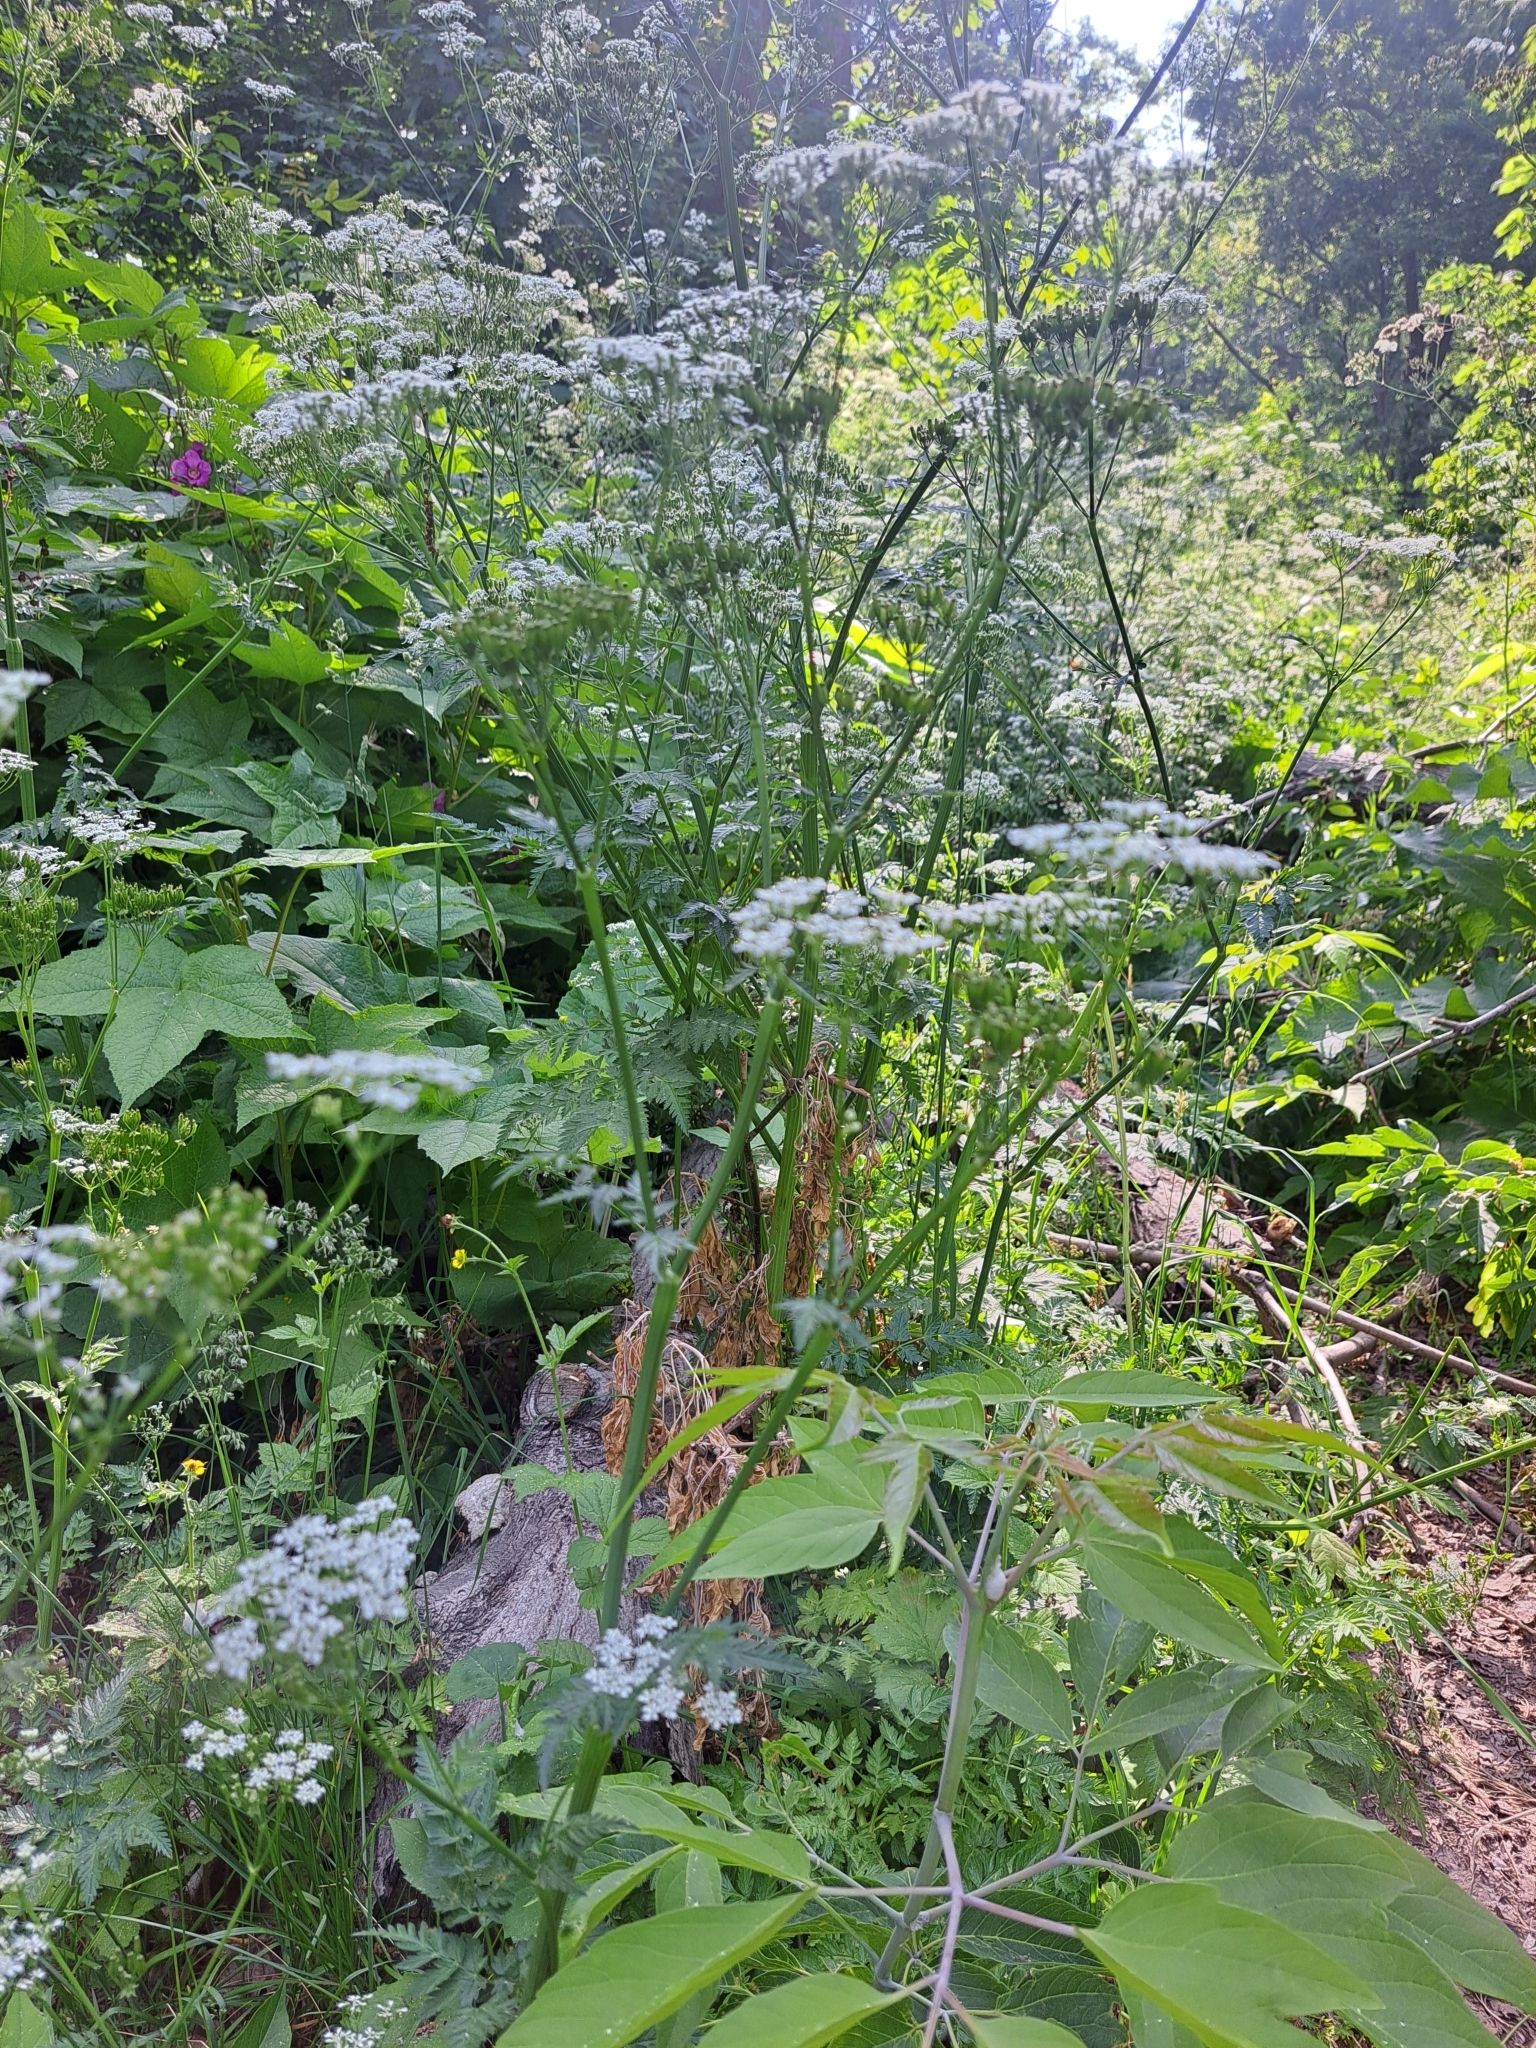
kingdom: Plantae
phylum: Tracheophyta
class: Magnoliopsida
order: Apiales
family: Apiaceae
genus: Anthriscus
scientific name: Anthriscus sylvestris
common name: Cow parsley
